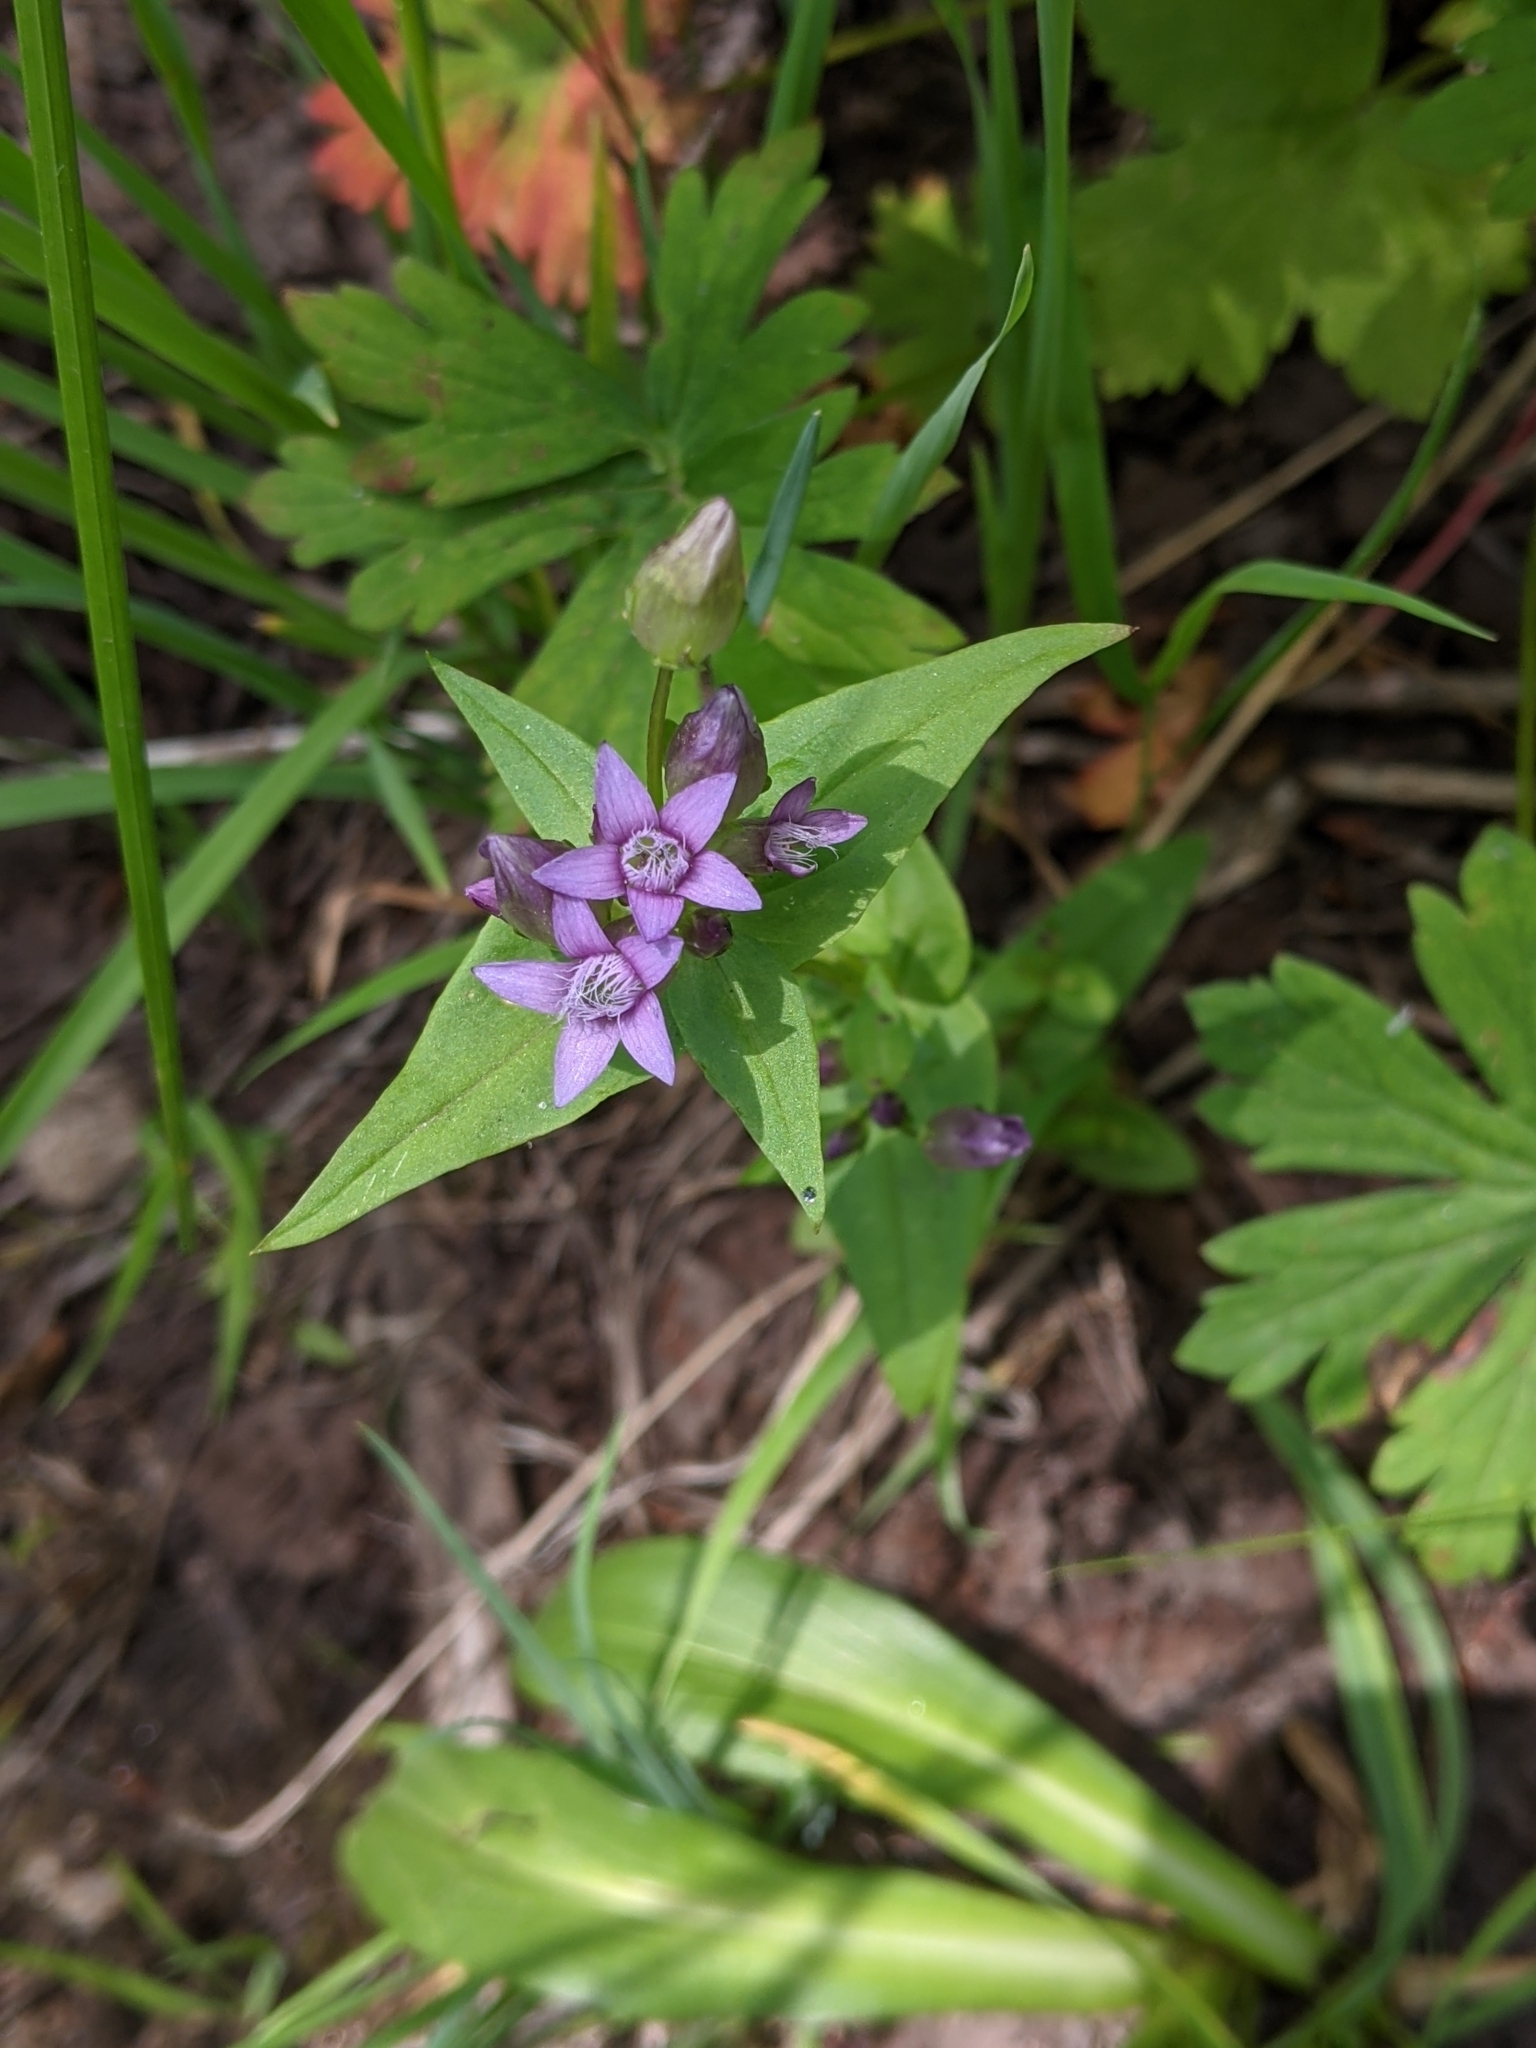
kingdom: Plantae
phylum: Tracheophyta
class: Magnoliopsida
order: Gentianales
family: Gentianaceae
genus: Gentianella
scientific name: Gentianella amarella
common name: Autumn gentian
